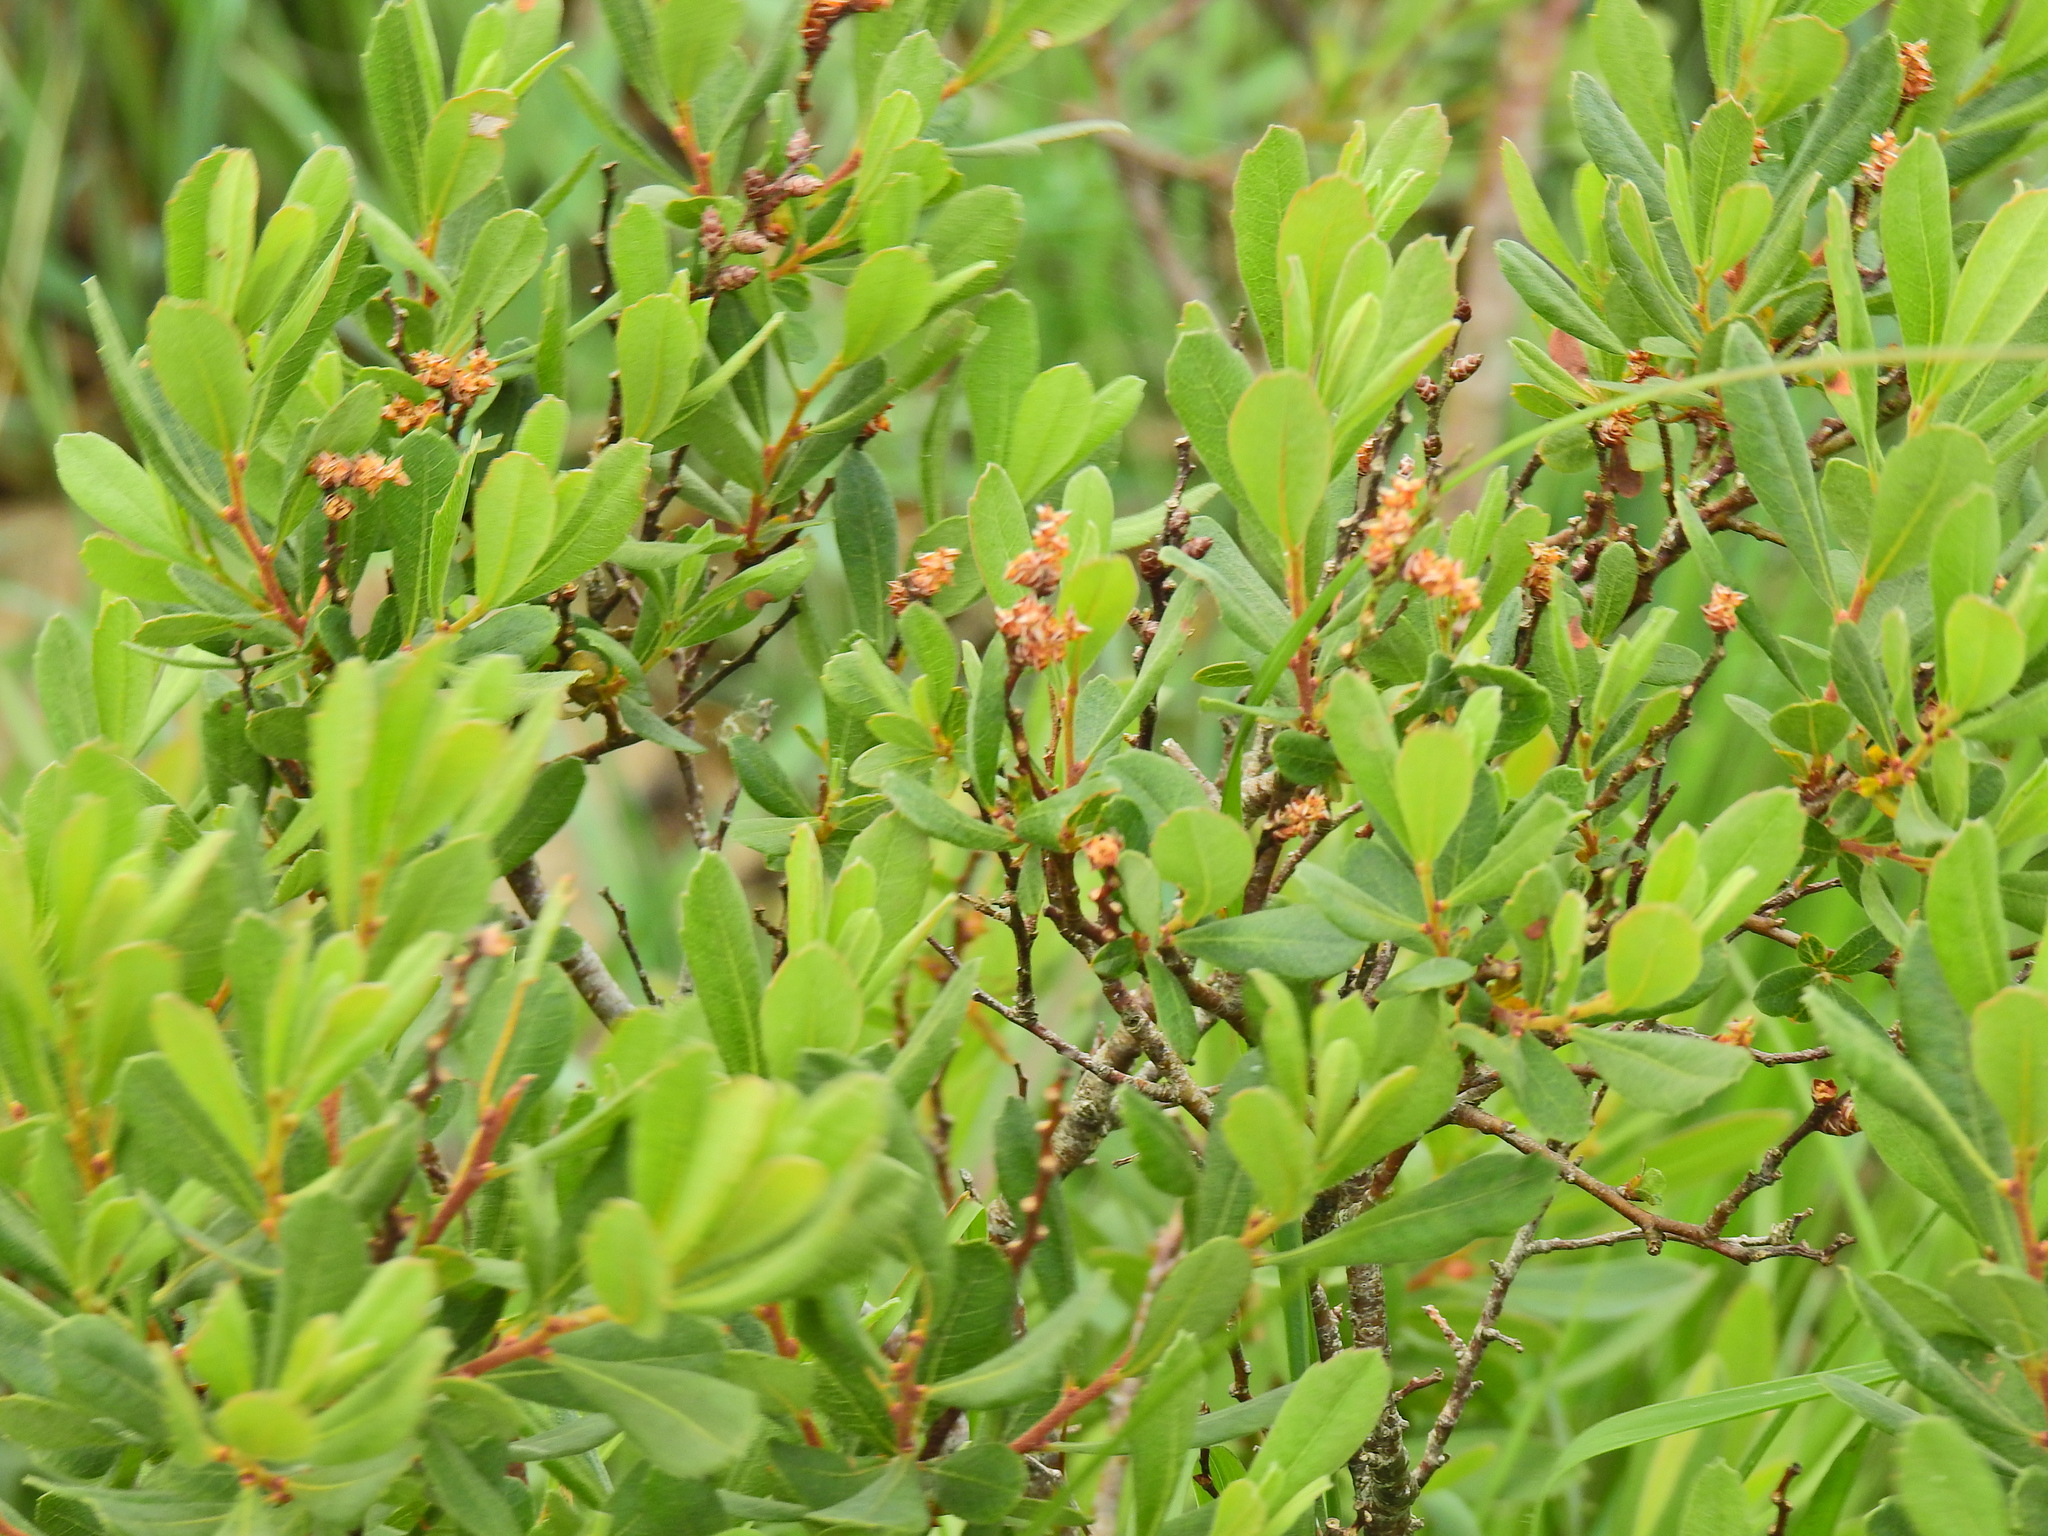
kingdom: Plantae
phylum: Tracheophyta
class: Magnoliopsida
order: Fagales
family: Myricaceae
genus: Myrica
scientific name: Myrica gale
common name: Sweet gale
